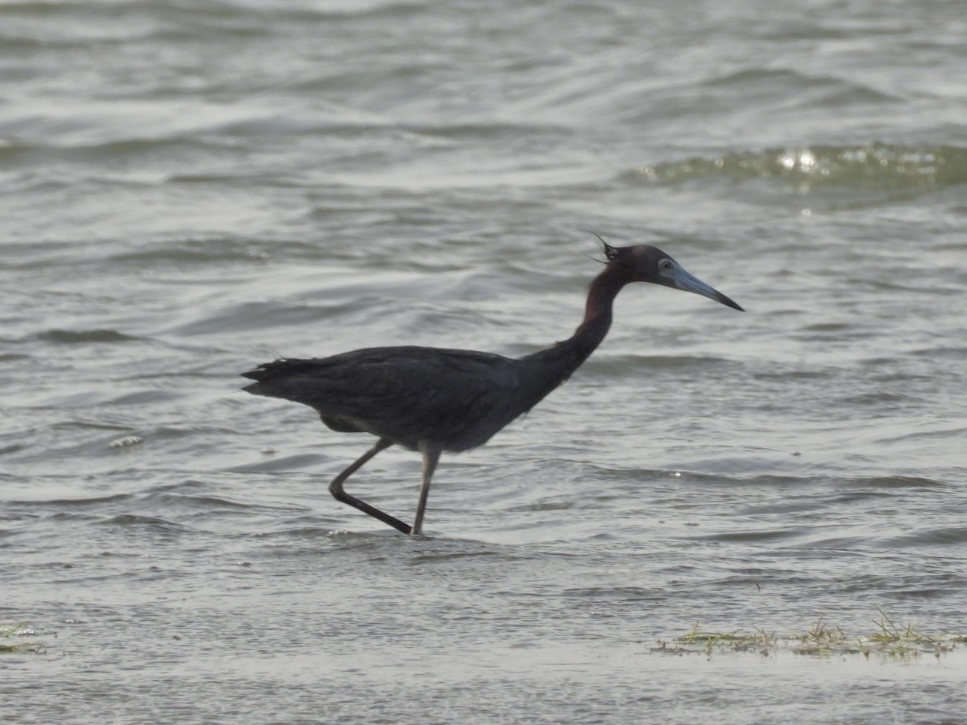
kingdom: Animalia
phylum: Chordata
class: Aves
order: Pelecaniformes
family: Ardeidae
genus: Egretta
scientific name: Egretta rufescens
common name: Reddish egret
